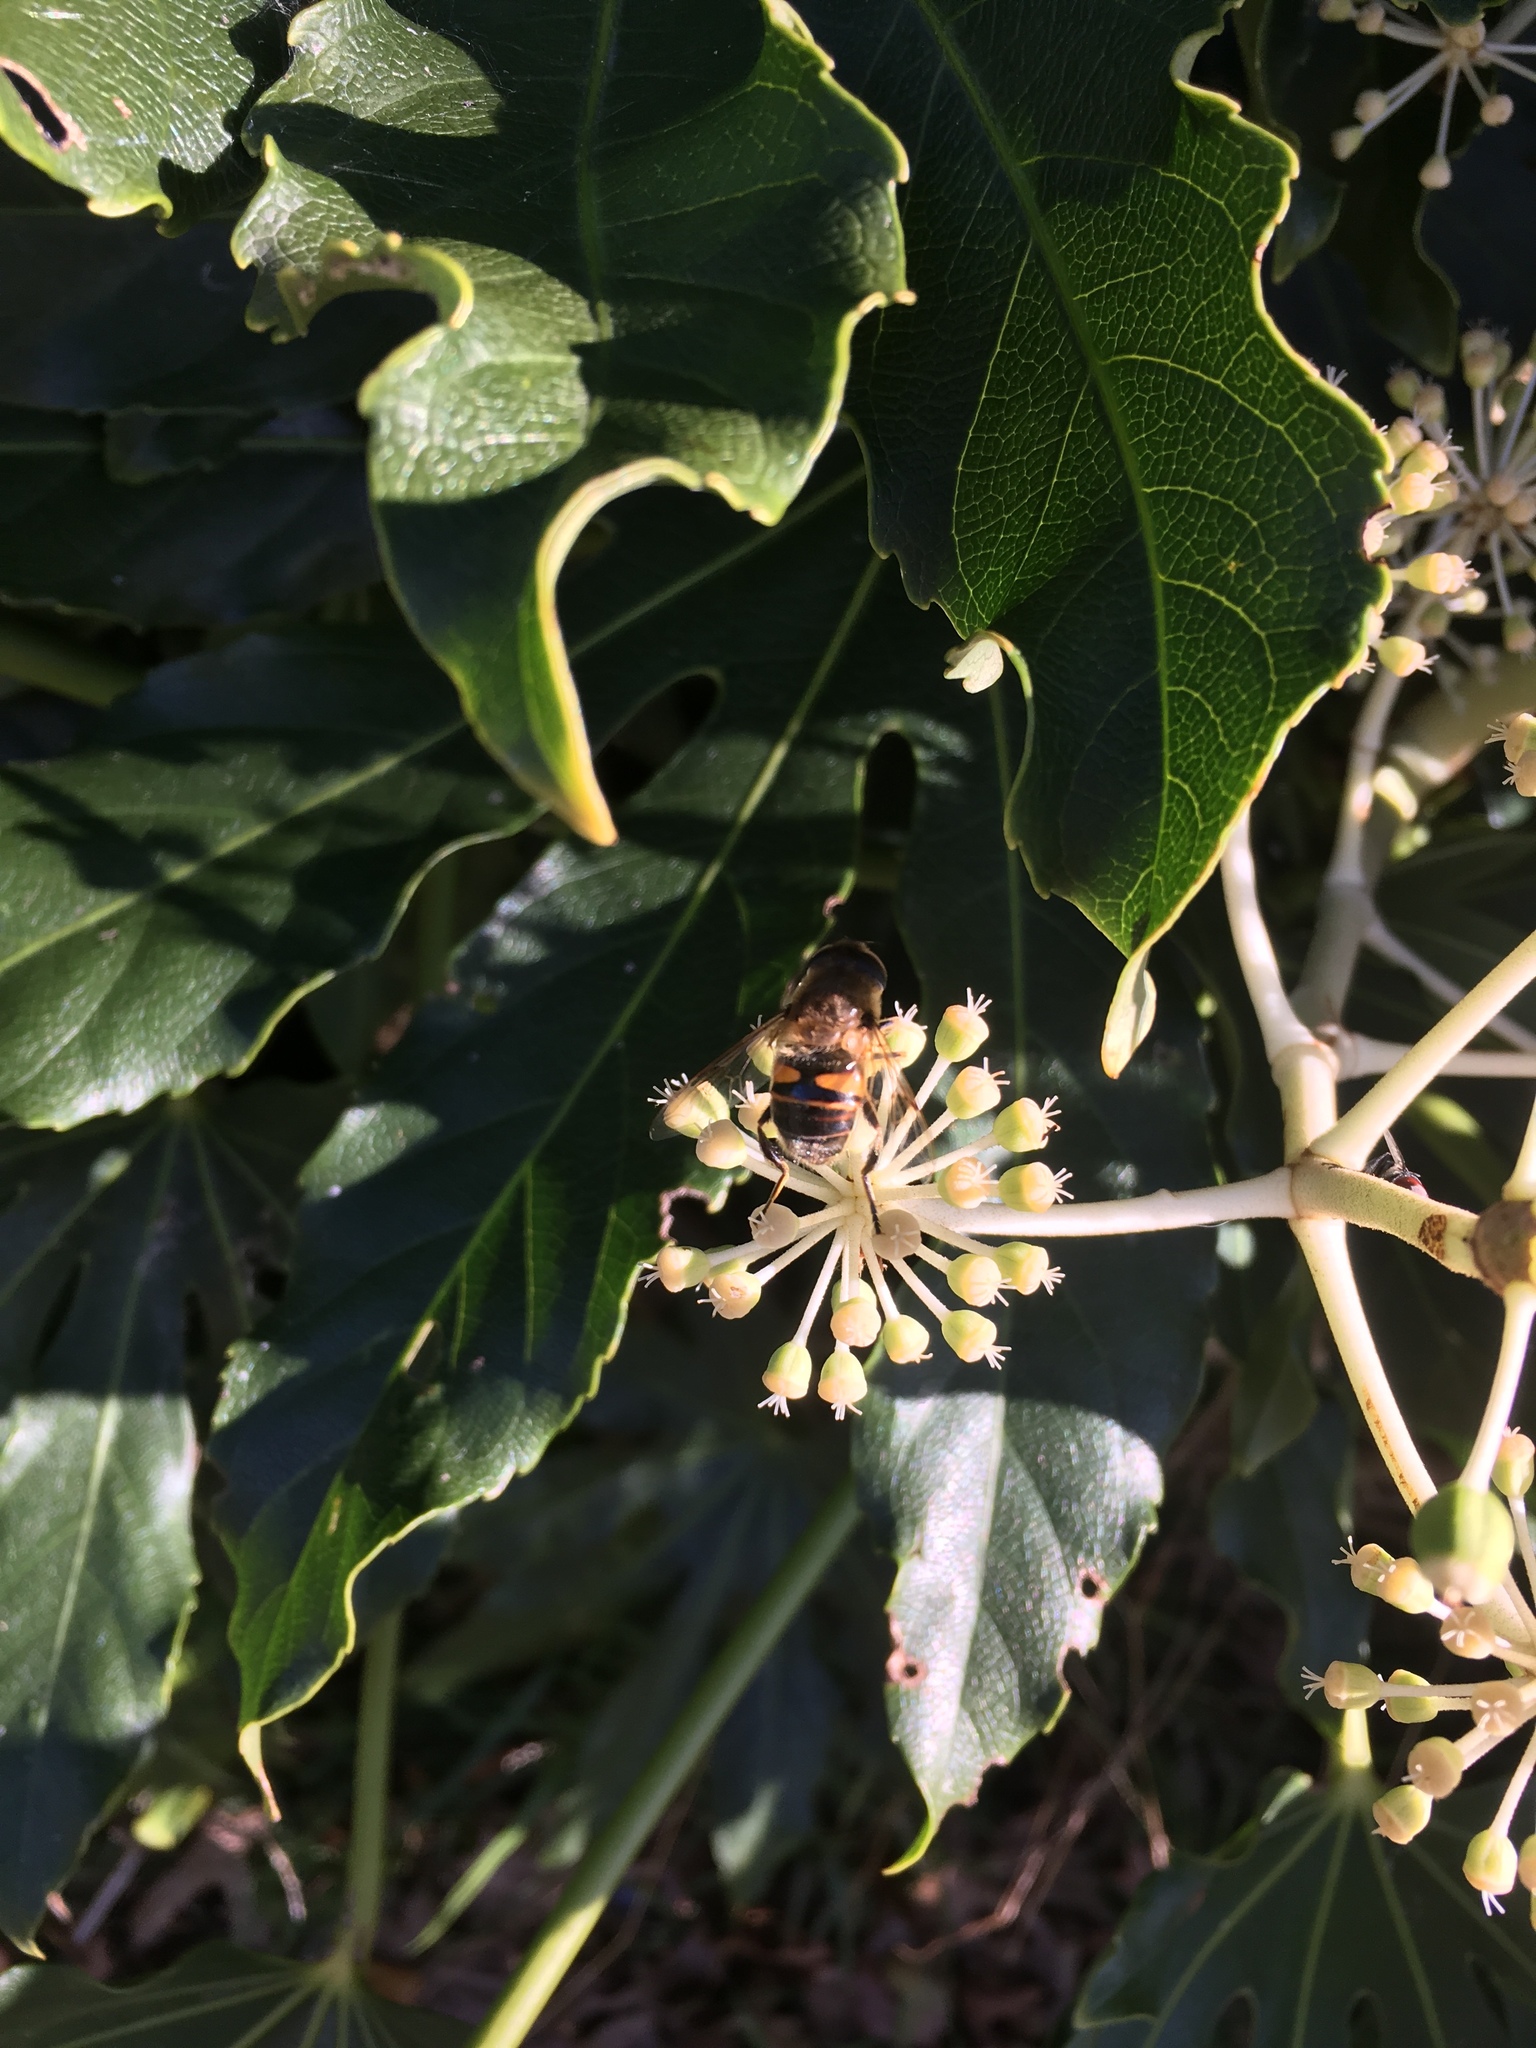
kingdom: Animalia
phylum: Arthropoda
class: Insecta
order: Diptera
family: Syrphidae
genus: Eristalis
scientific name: Eristalis tenax
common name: Drone fly
